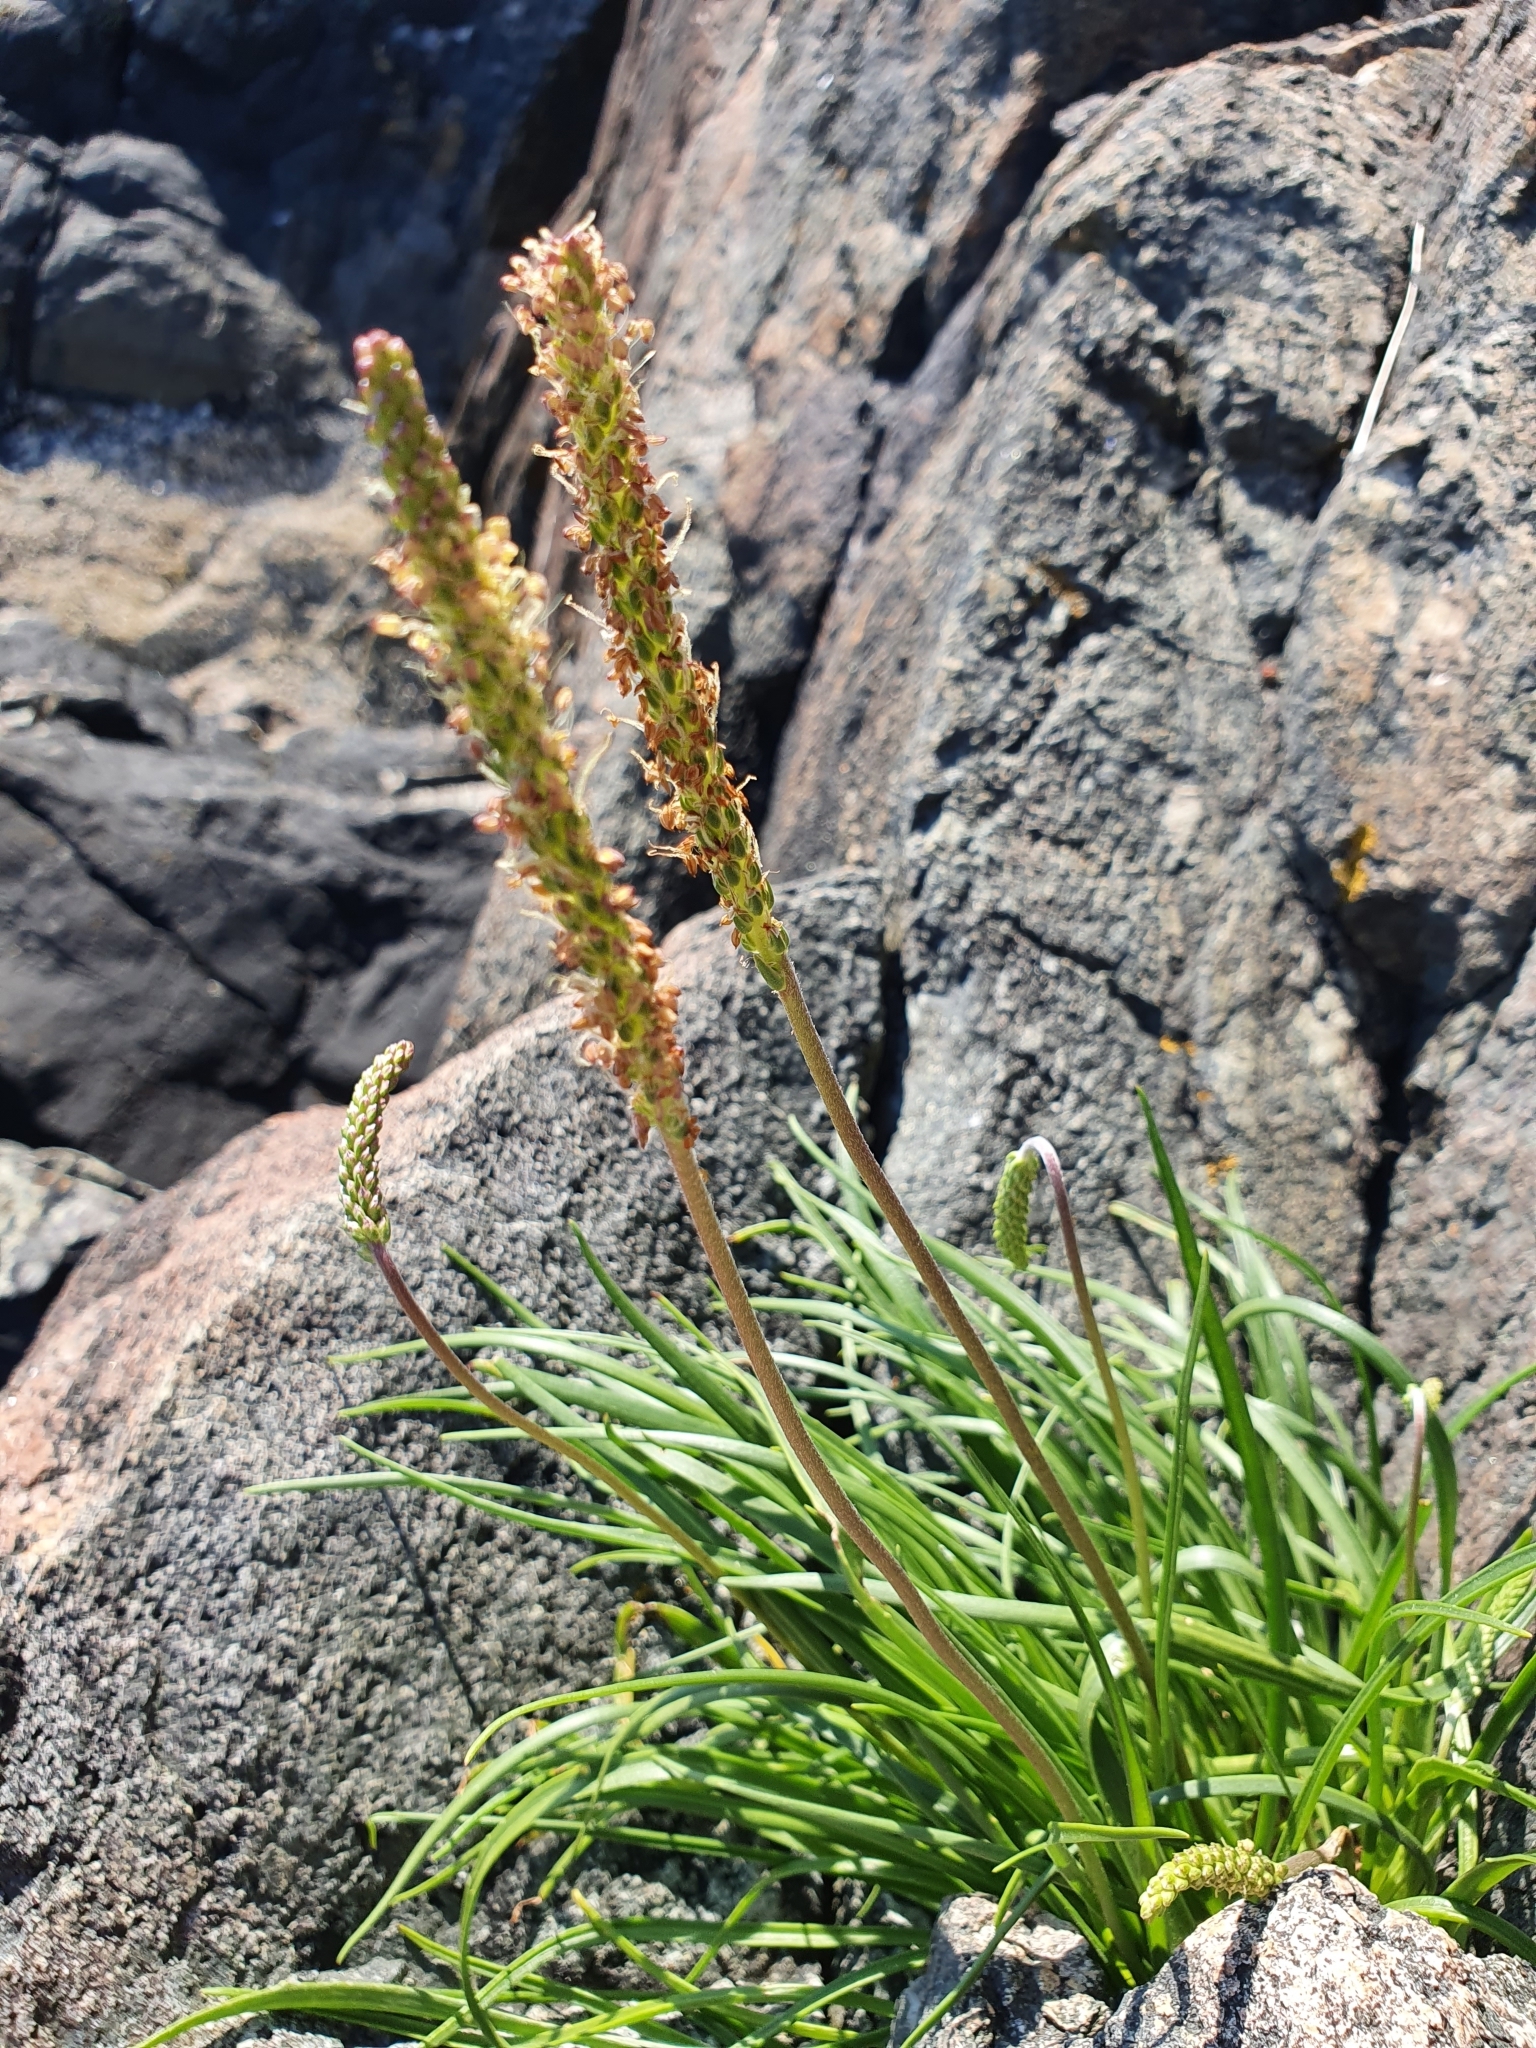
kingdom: Plantae
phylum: Tracheophyta
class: Magnoliopsida
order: Lamiales
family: Plantaginaceae
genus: Plantago
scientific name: Plantago maritima
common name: Sea plantain
